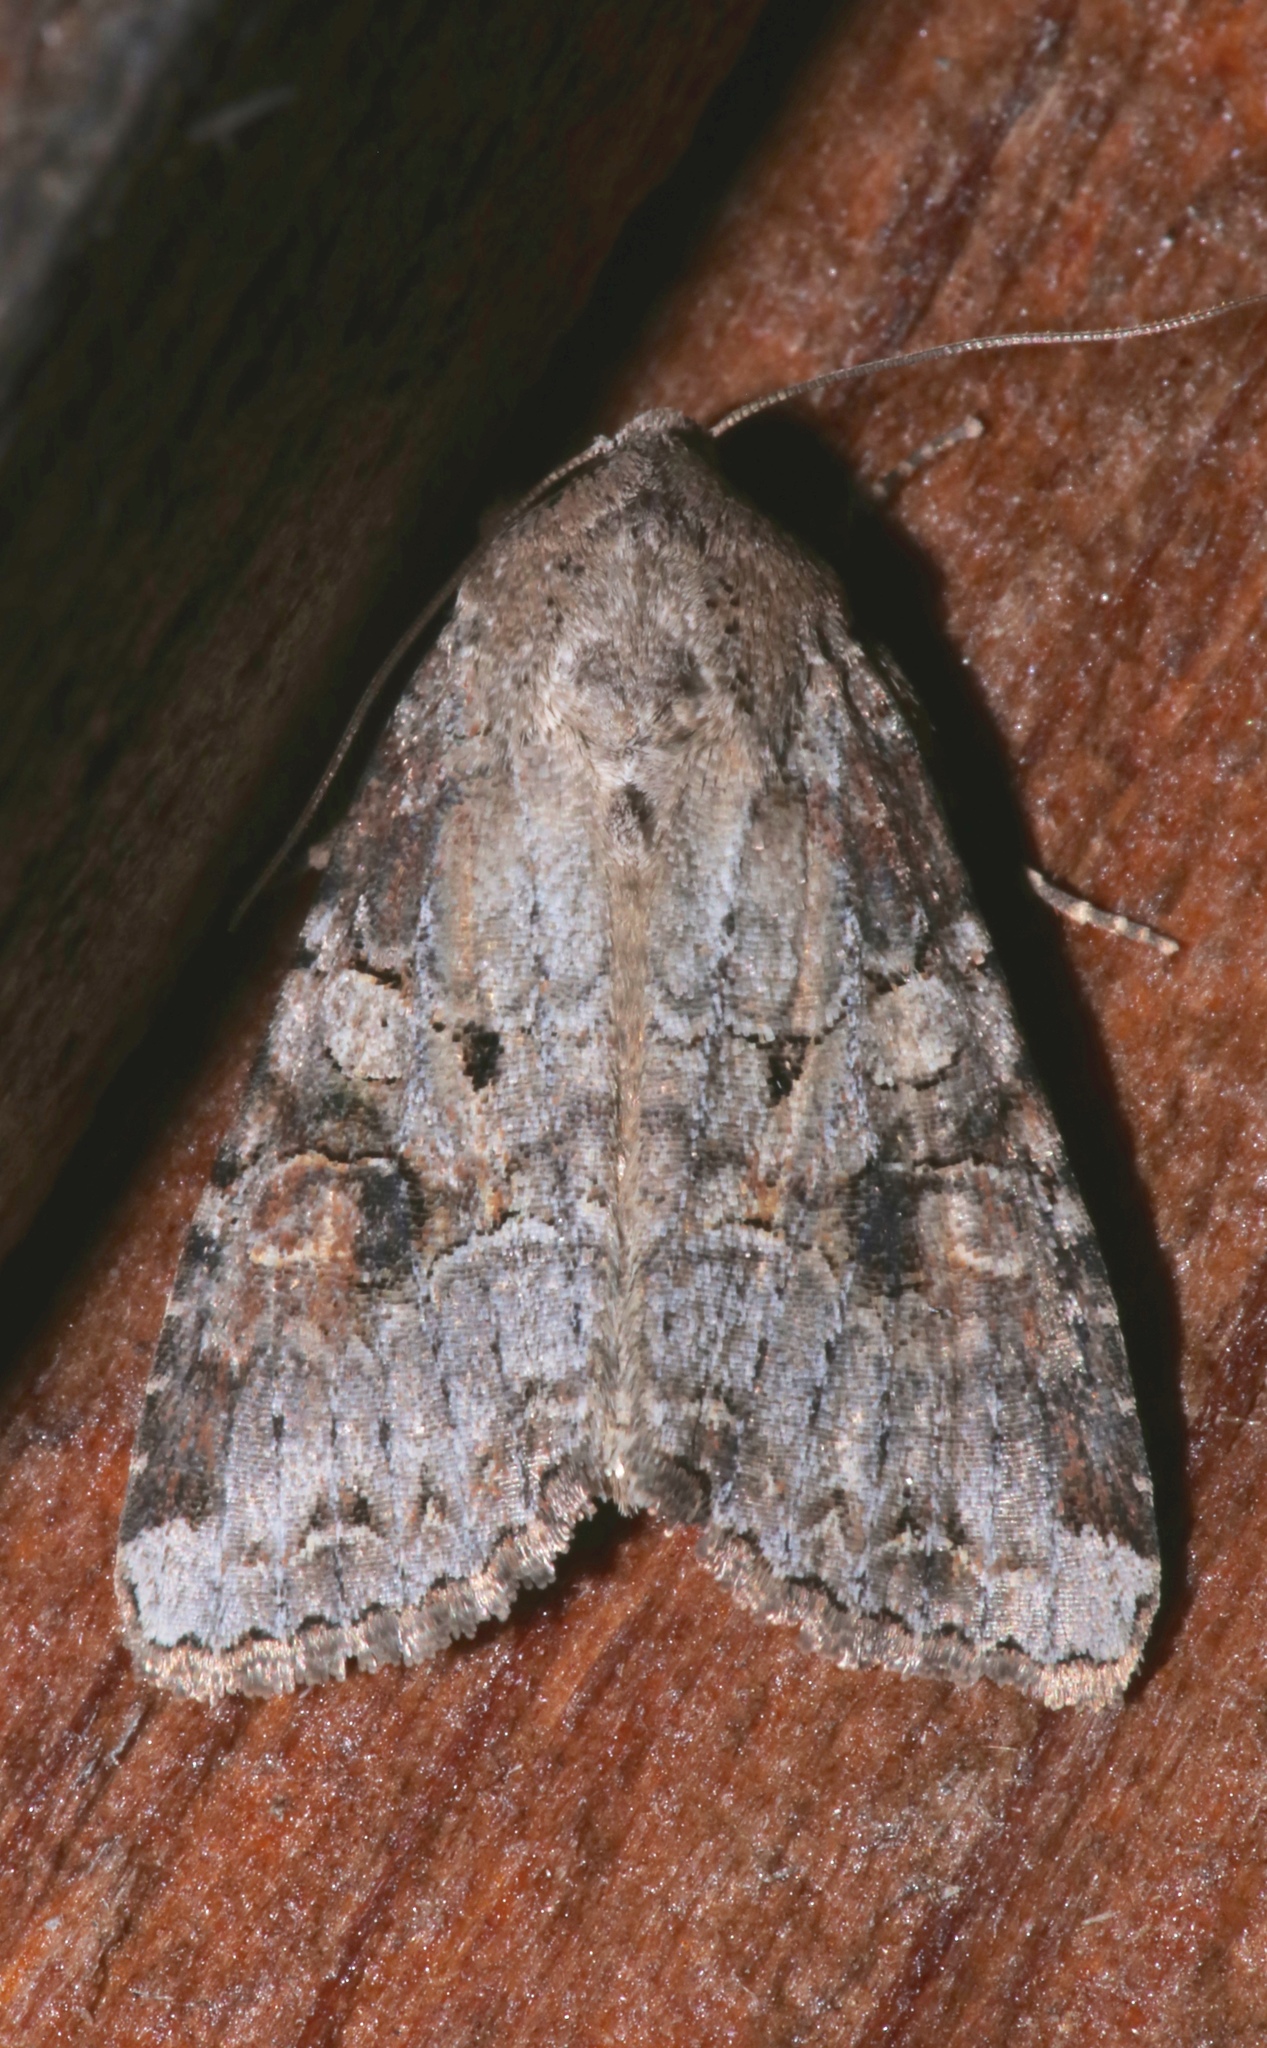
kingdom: Animalia
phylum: Arthropoda
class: Insecta
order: Lepidoptera
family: Noctuidae
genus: Trichordestra
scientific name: Trichordestra legitima
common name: Striped garden caterpillar
